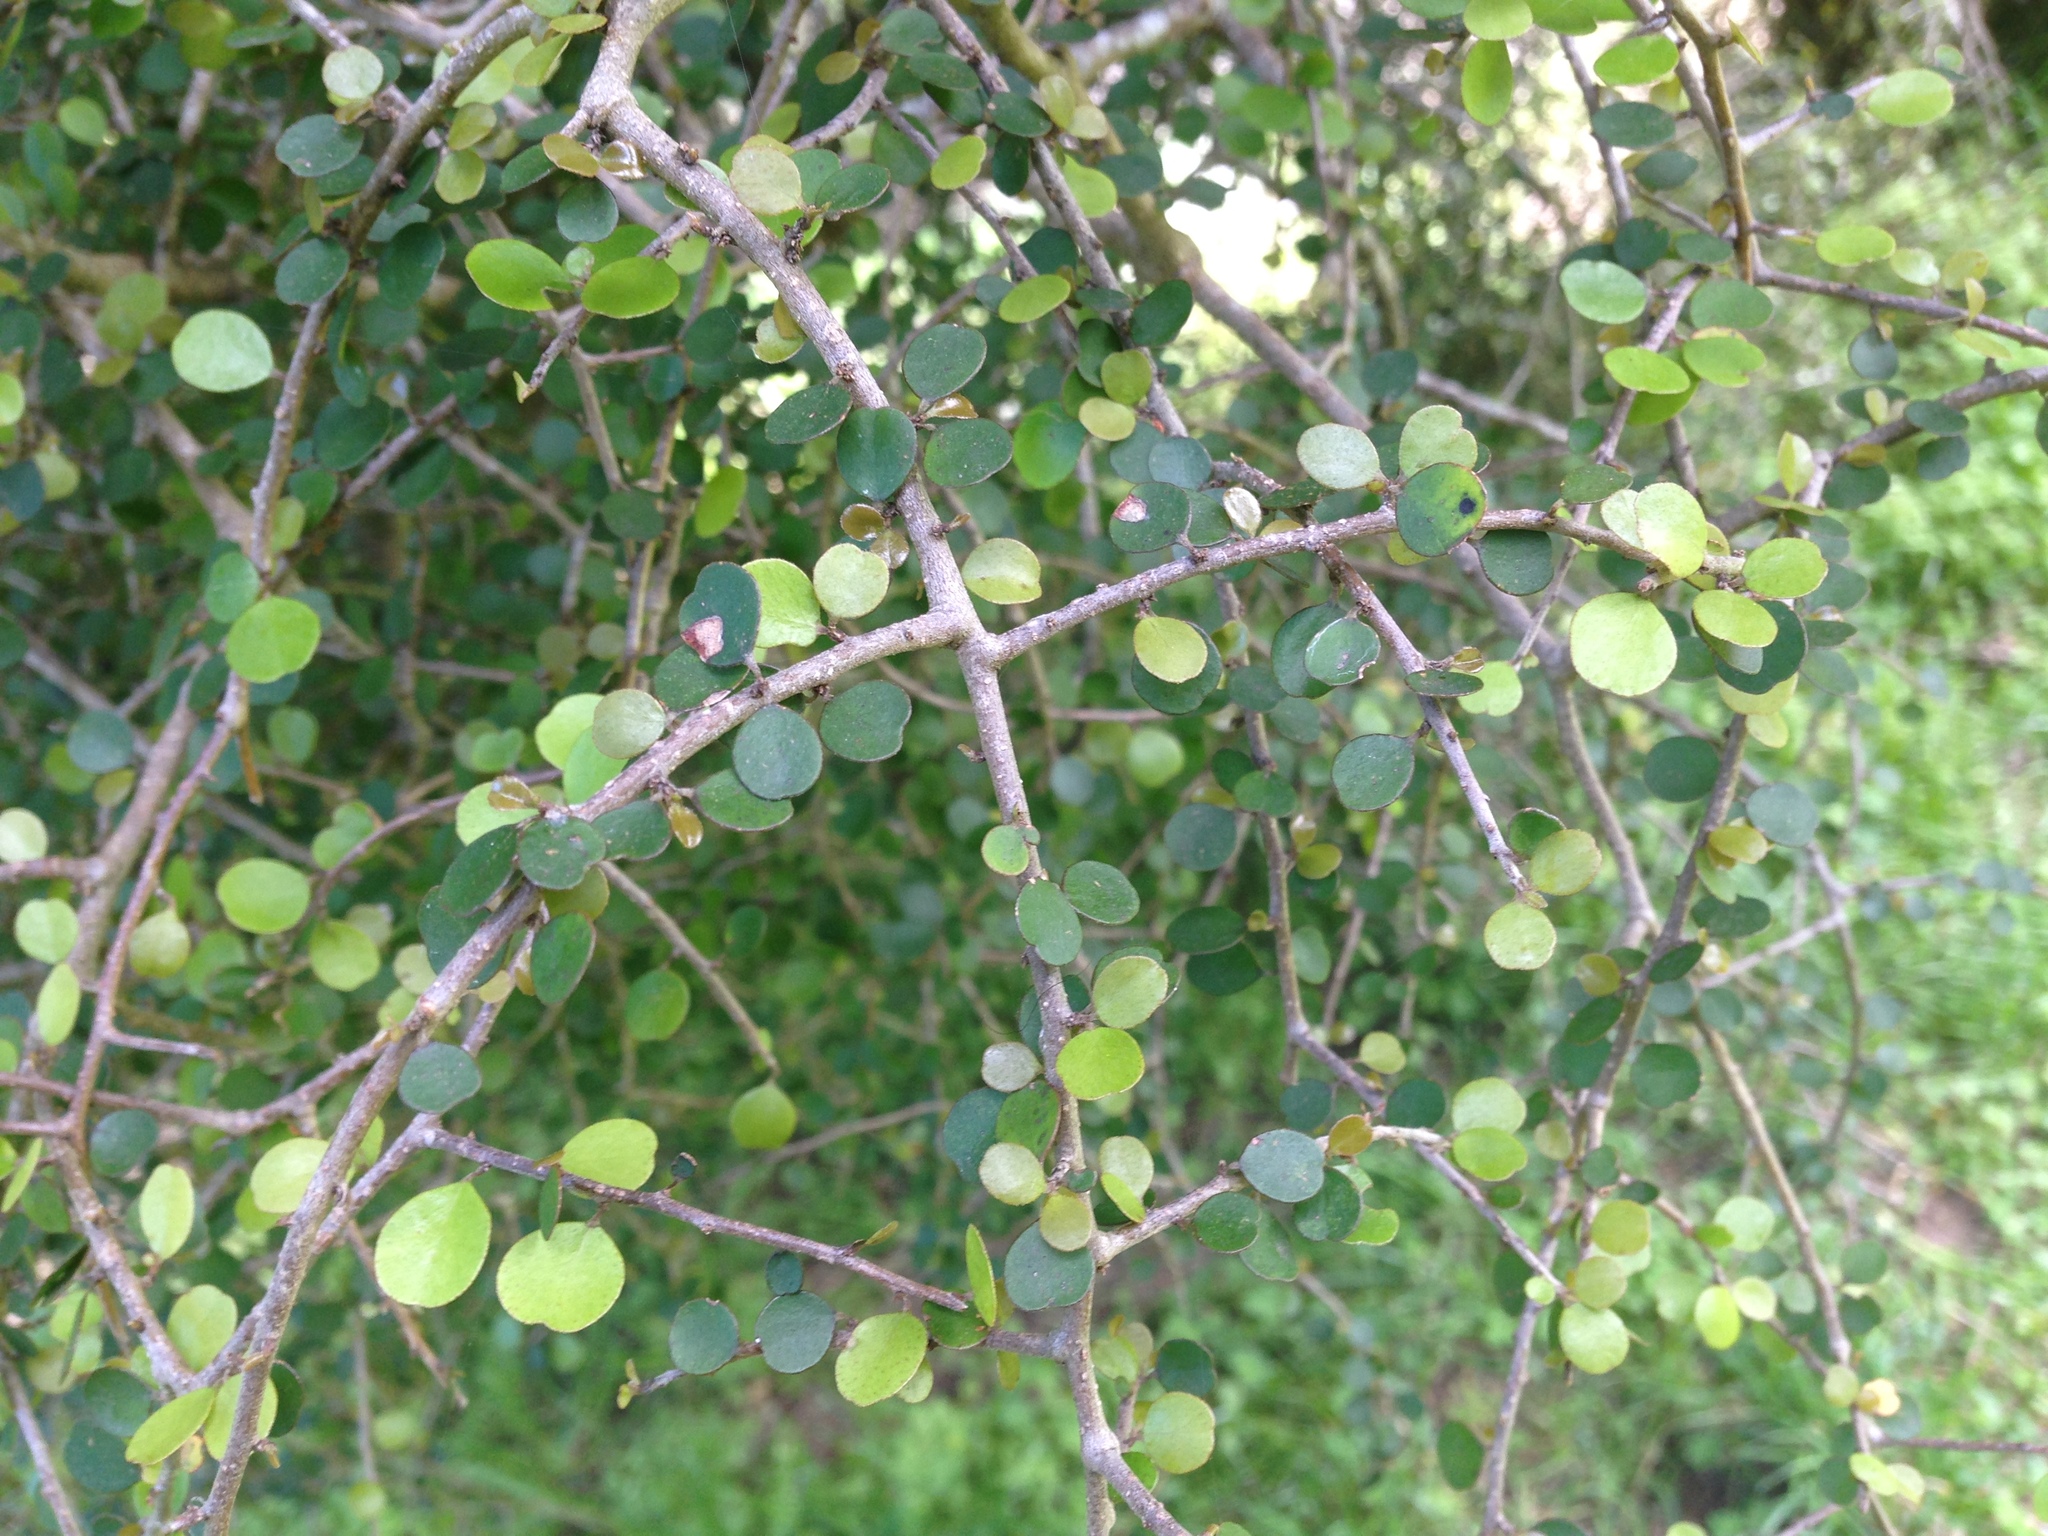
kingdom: Plantae
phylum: Tracheophyta
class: Magnoliopsida
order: Ericales
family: Primulaceae
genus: Myrsine
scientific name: Myrsine divaricata
